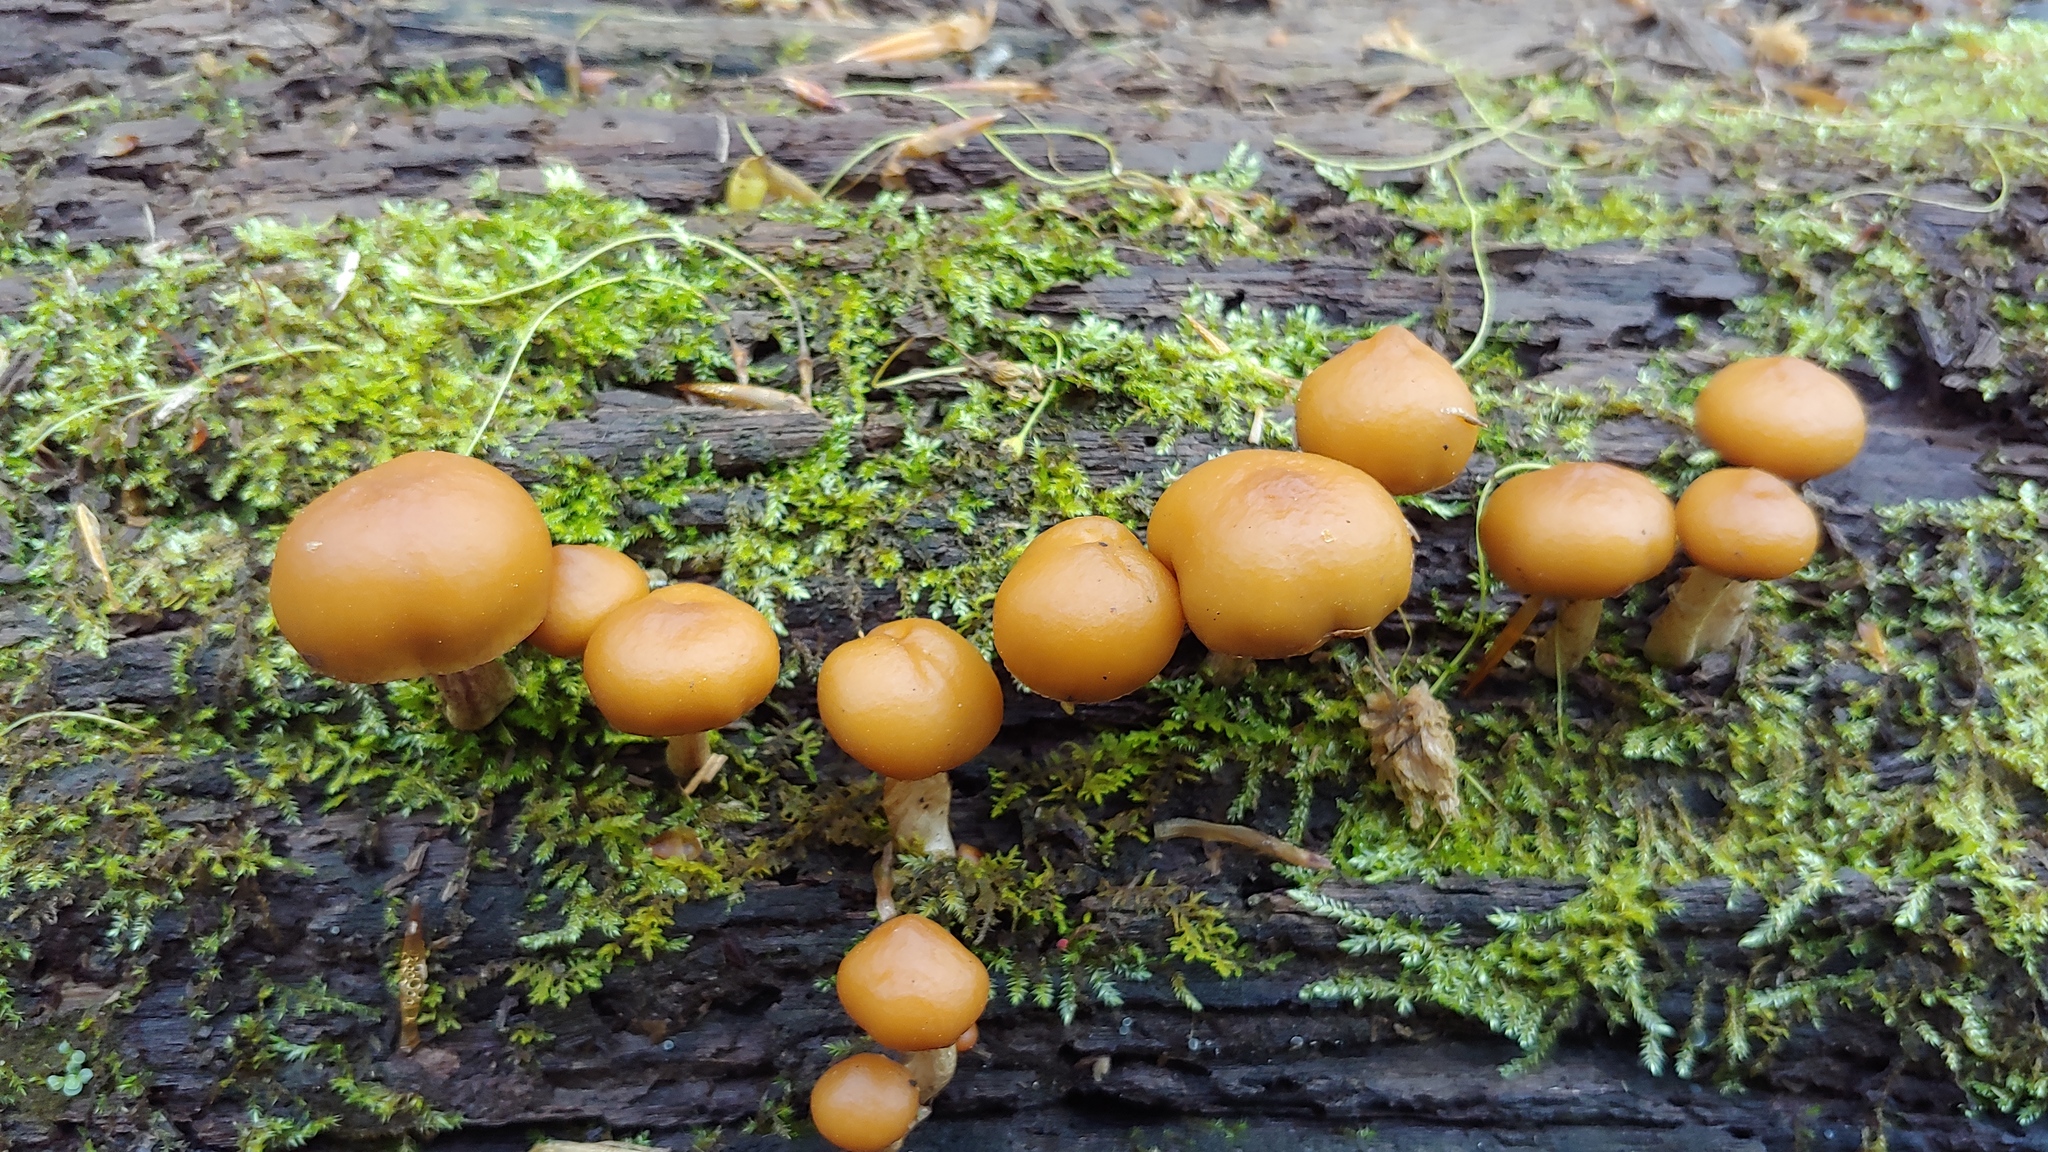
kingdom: Fungi
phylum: Basidiomycota
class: Agaricomycetes
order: Agaricales
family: Hymenogastraceae
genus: Galerina
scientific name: Galerina marginata
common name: Funeral bell
